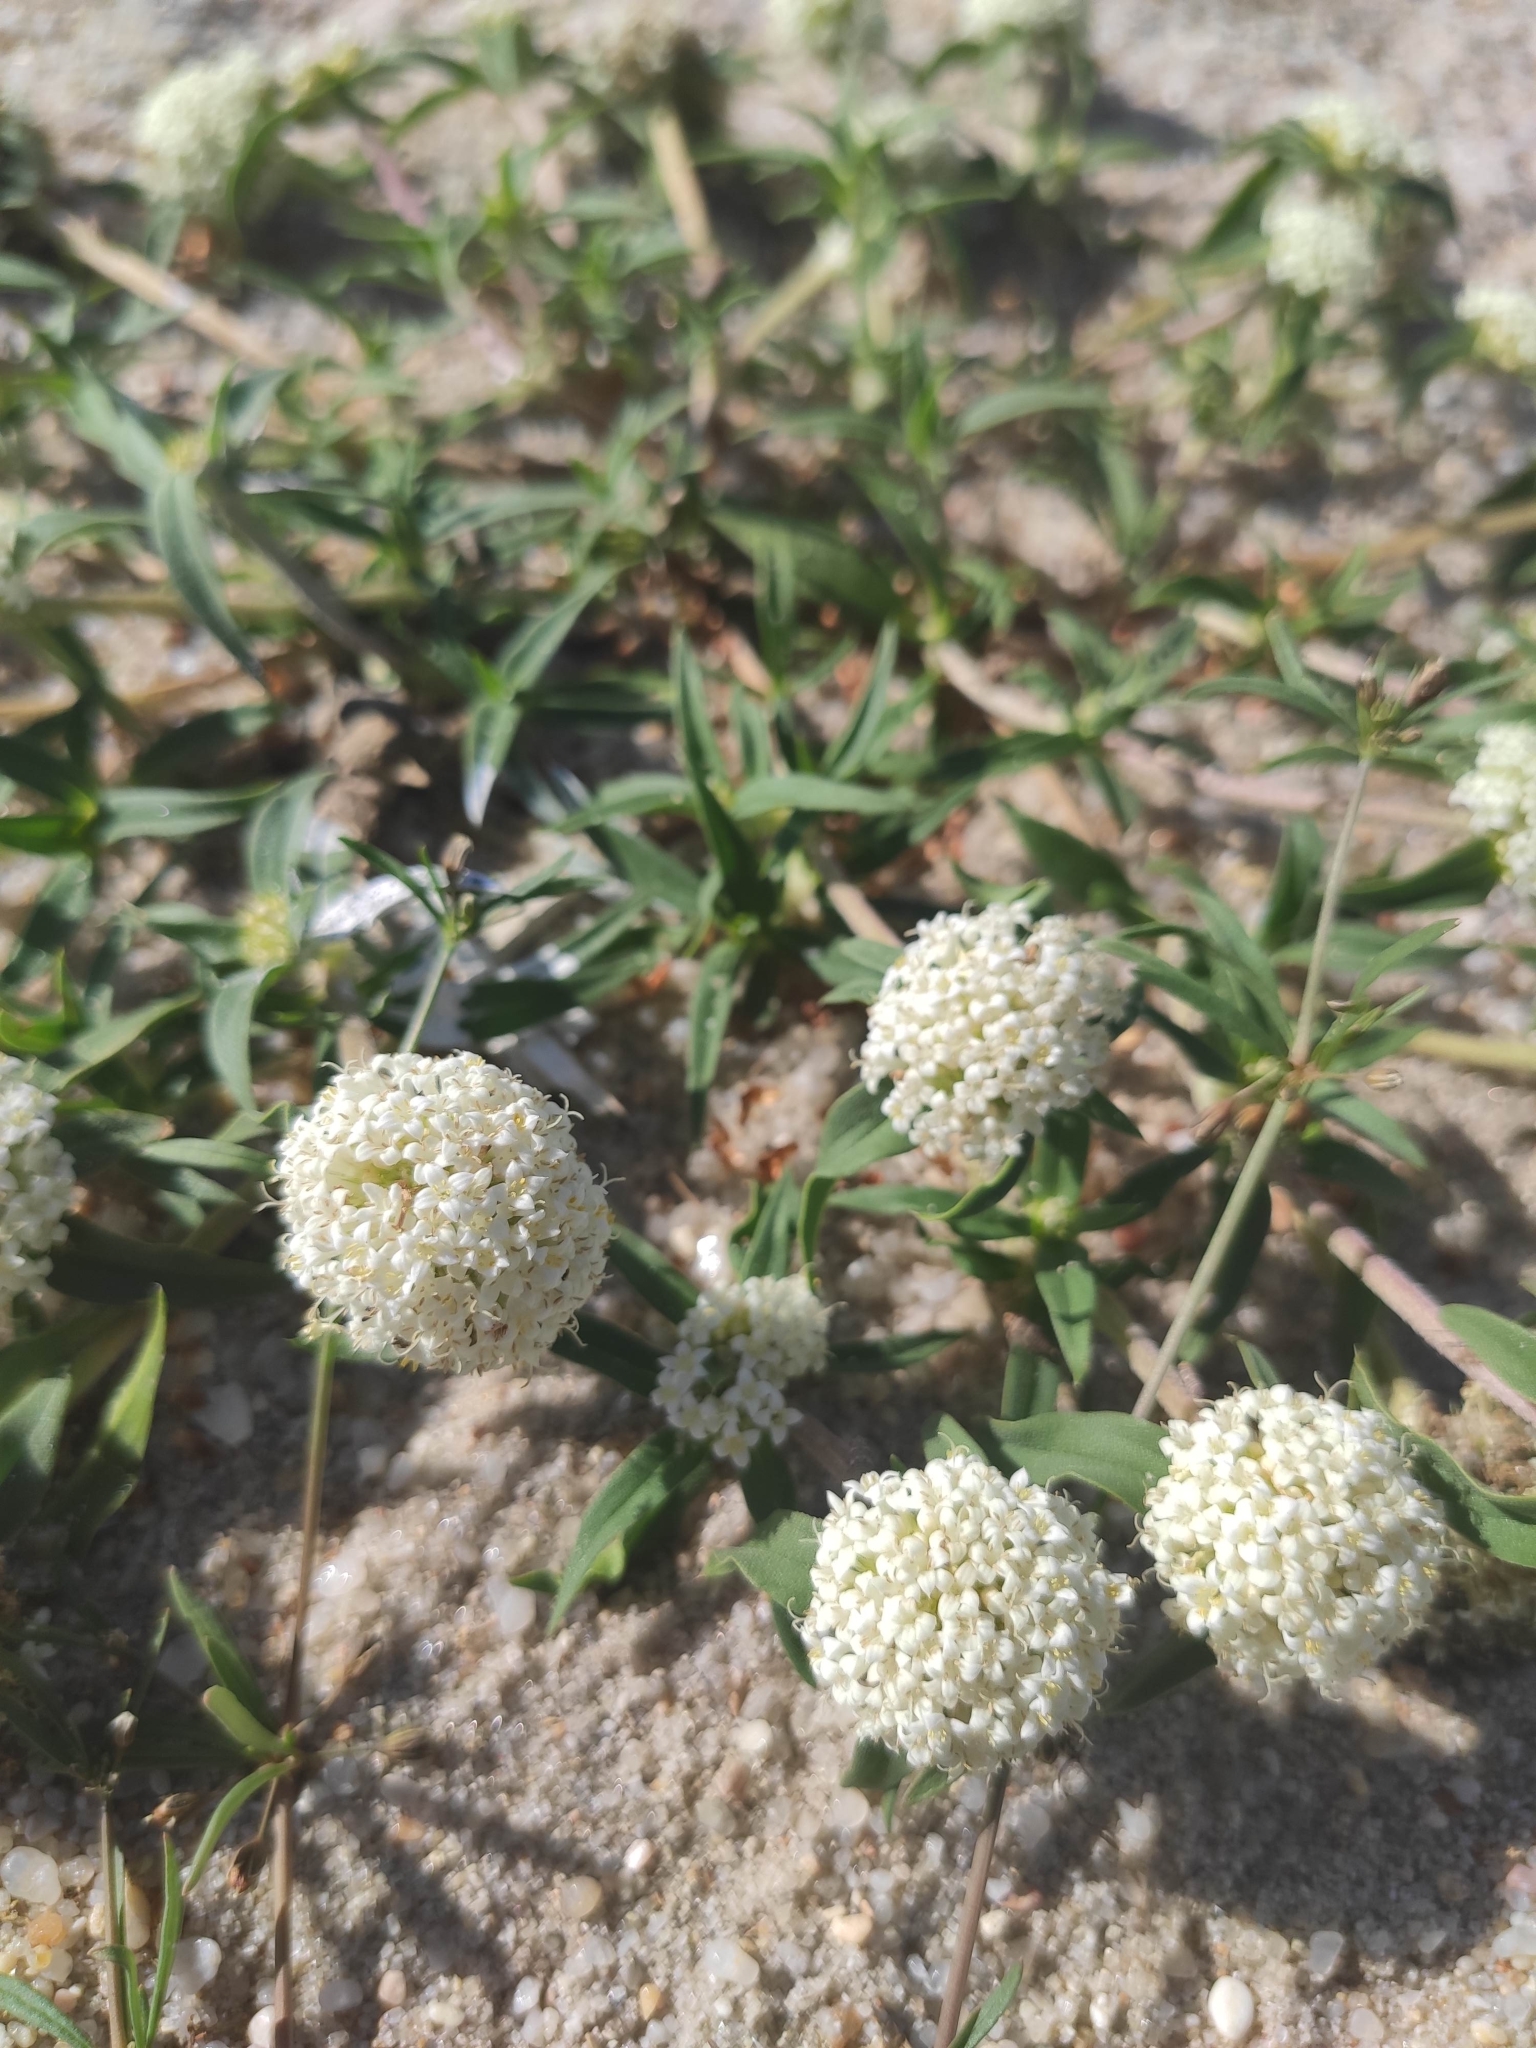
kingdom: Plantae
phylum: Tracheophyta
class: Magnoliopsida
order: Gentianales
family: Rubiaceae
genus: Mitracarpus
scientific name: Mitracarpus megapotamicus
